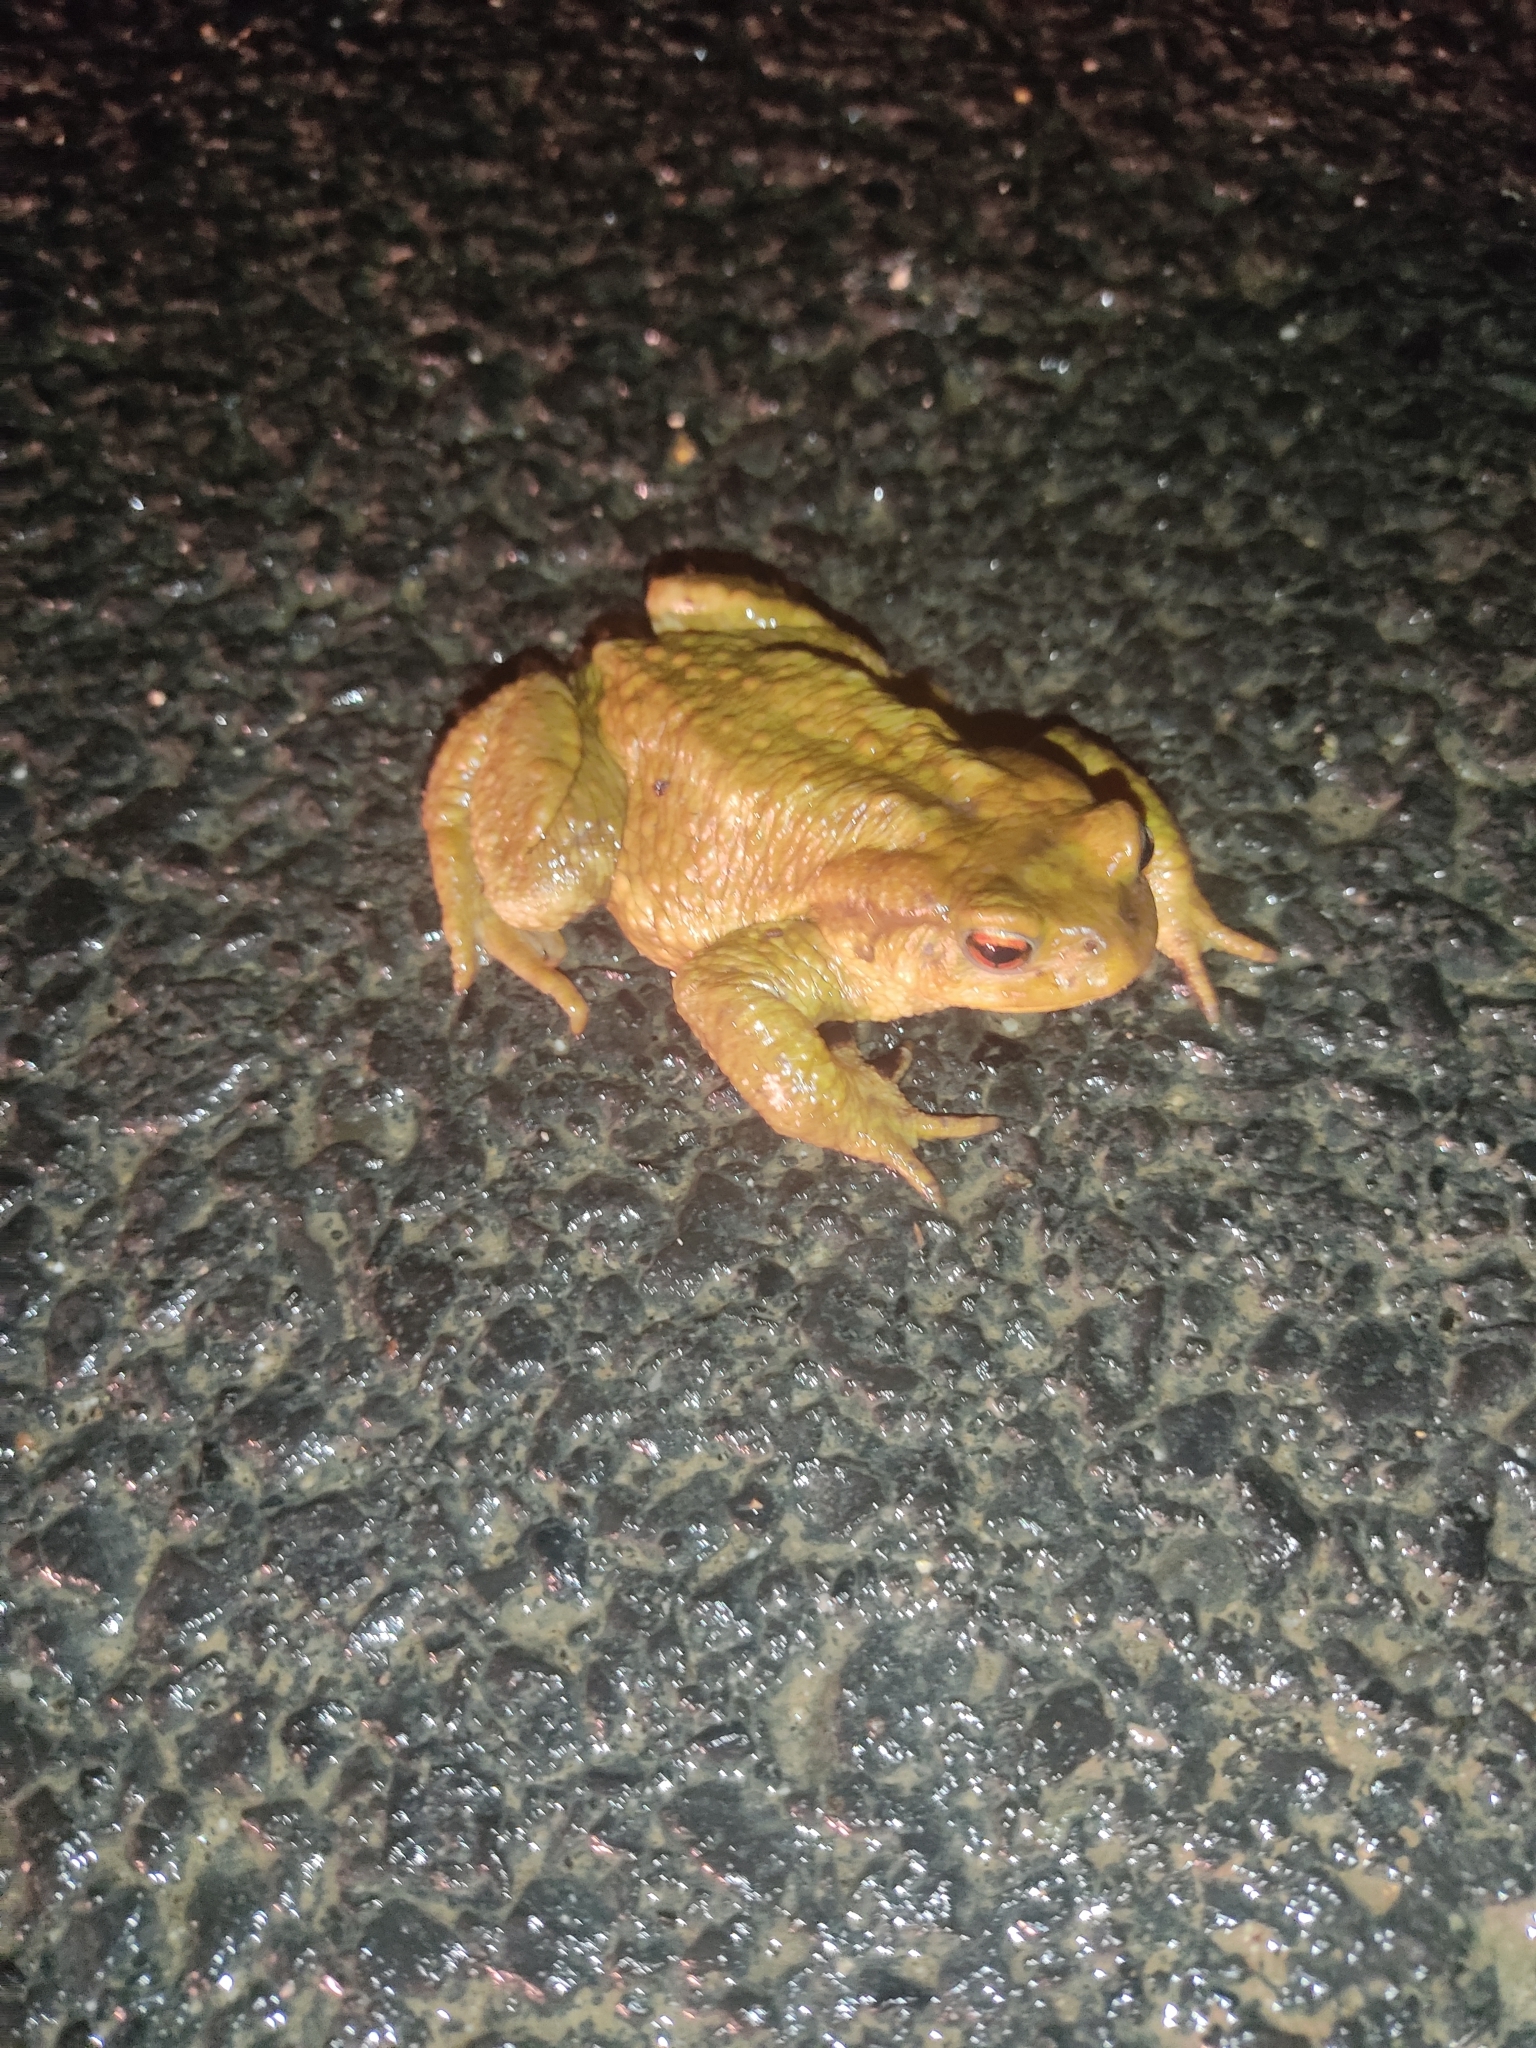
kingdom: Animalia
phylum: Chordata
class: Amphibia
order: Anura
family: Bufonidae
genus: Bufo
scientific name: Bufo spinosus
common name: Western common toad
